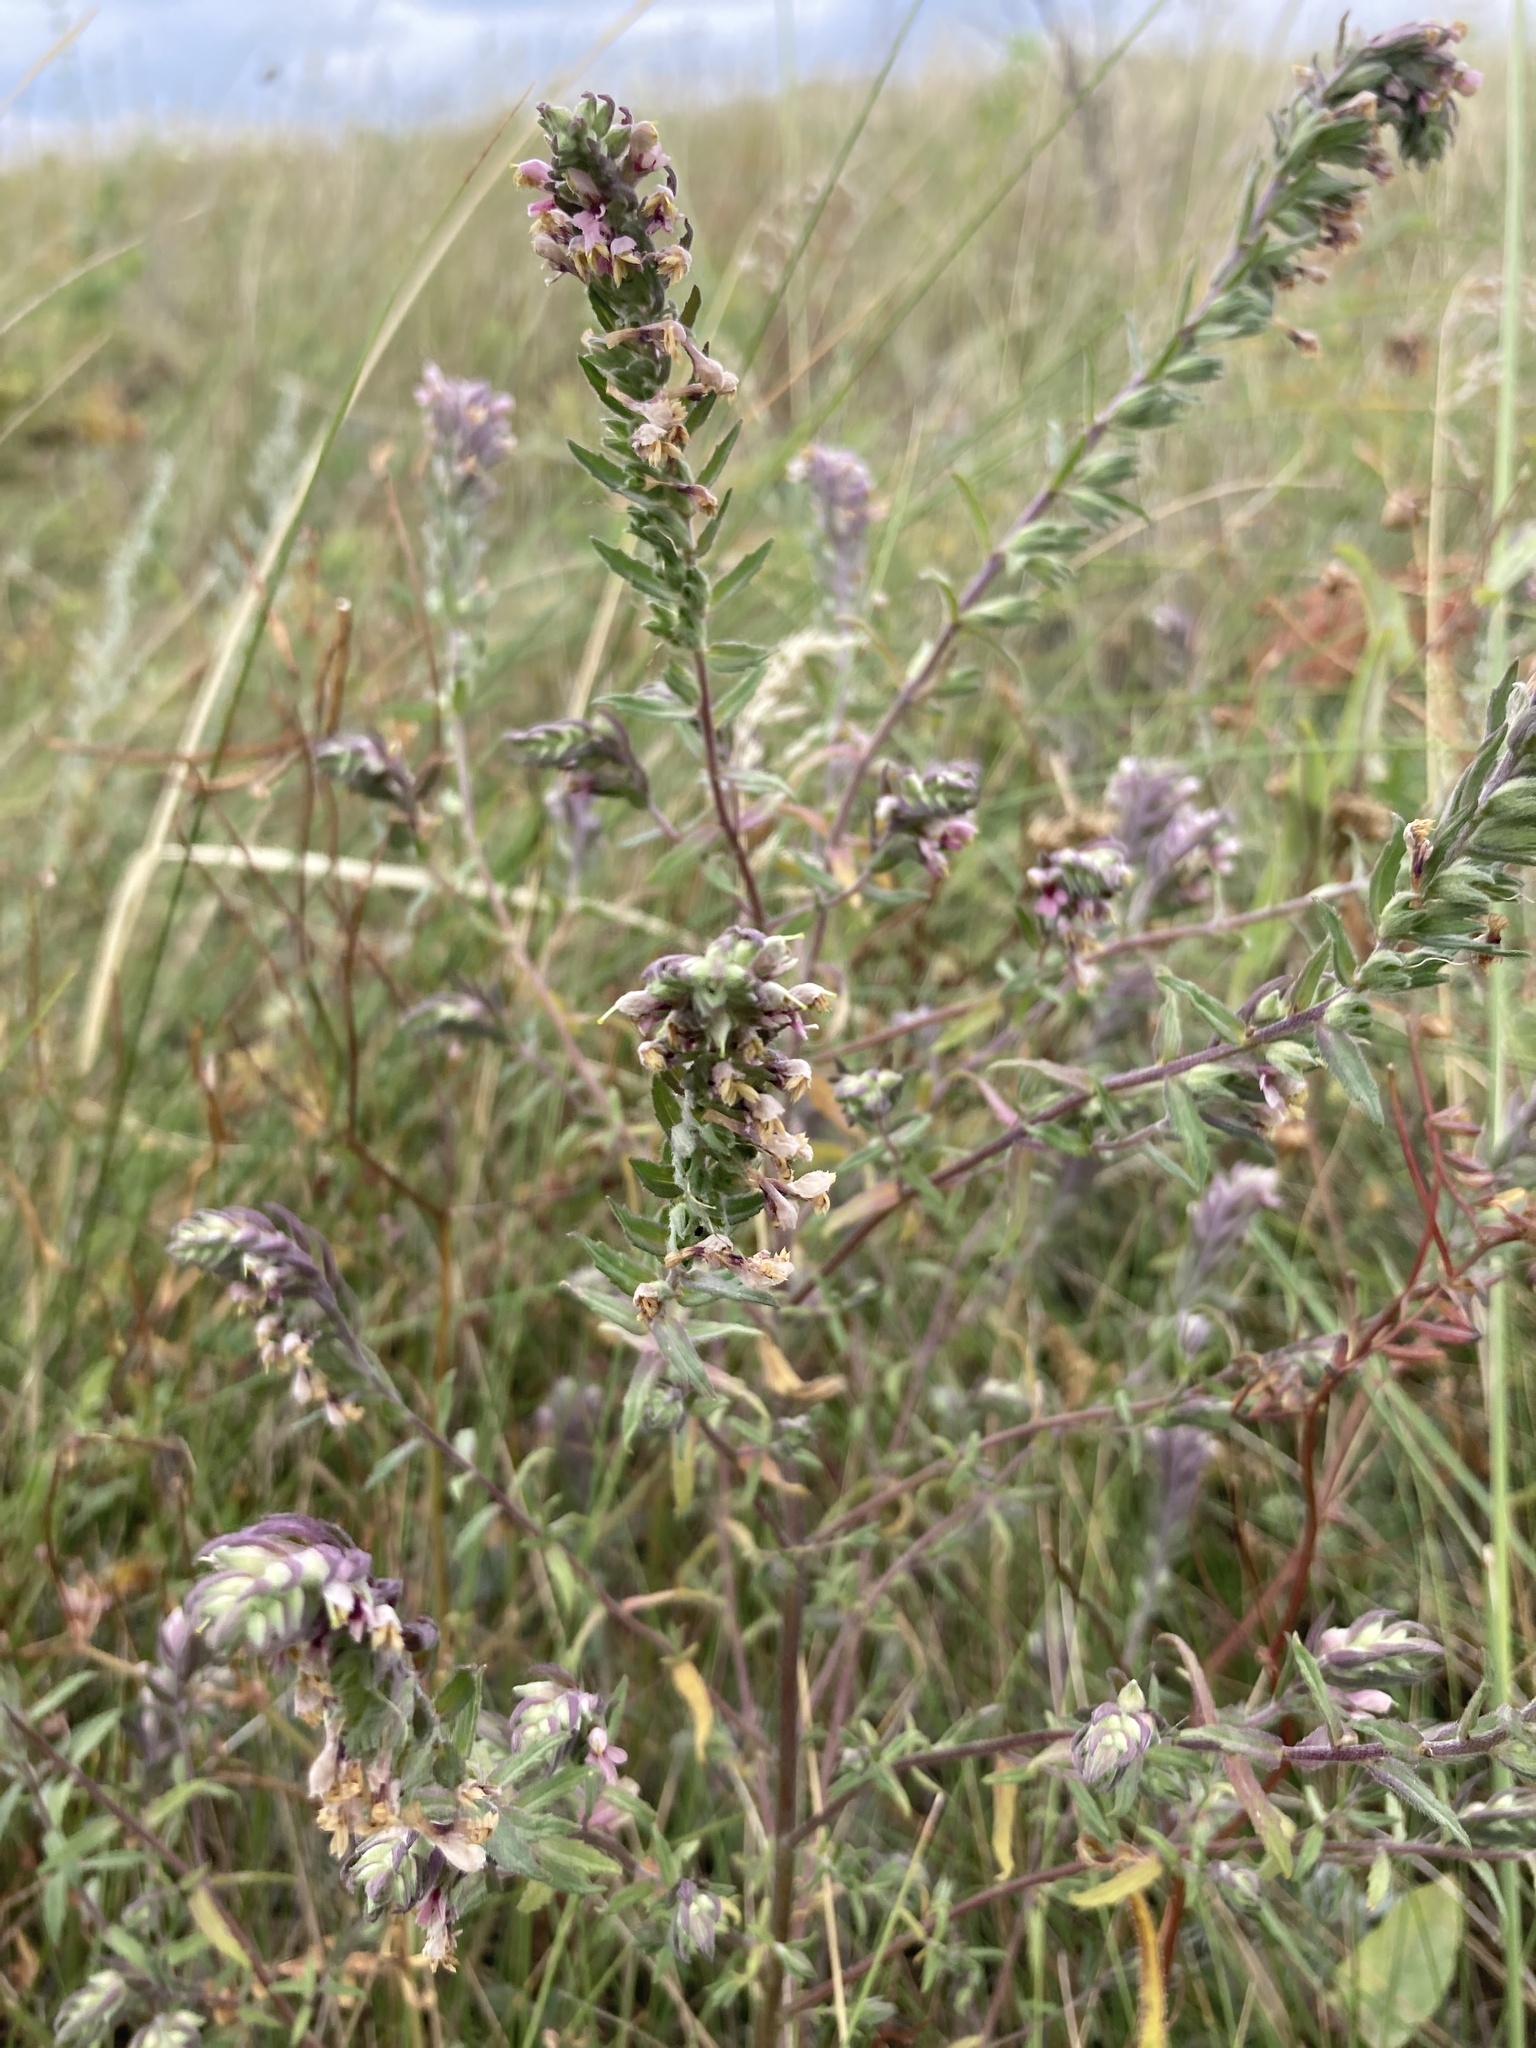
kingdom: Plantae
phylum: Tracheophyta
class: Magnoliopsida
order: Lamiales
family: Orobanchaceae
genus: Odontites
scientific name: Odontites vulgaris
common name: Broomrape
